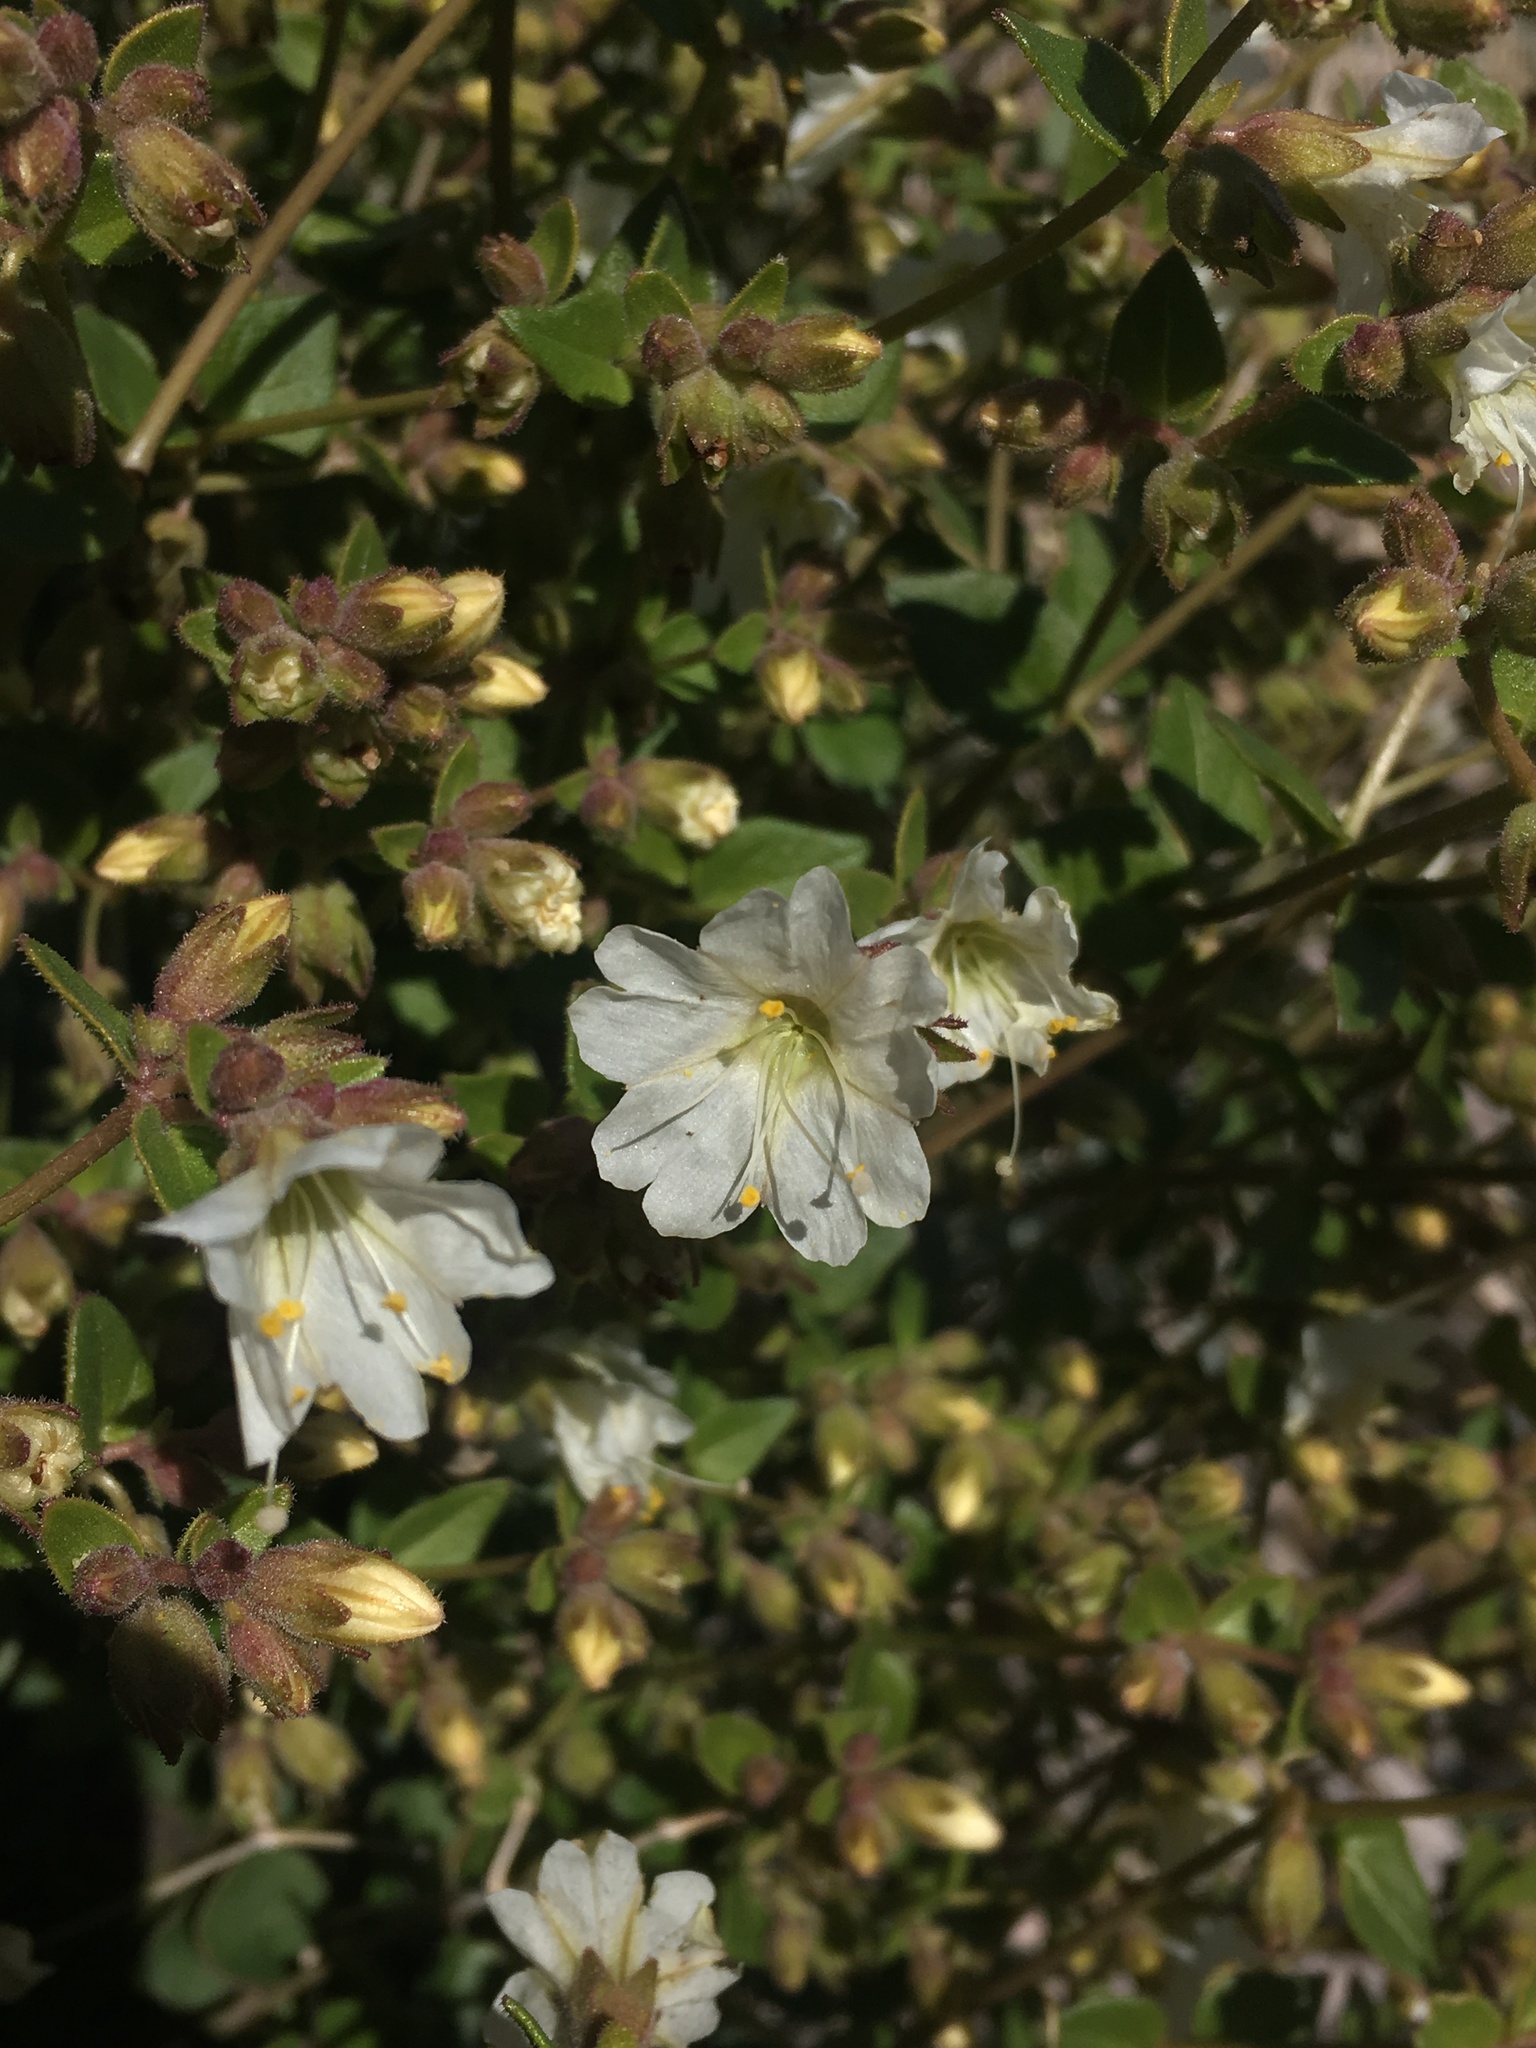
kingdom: Plantae
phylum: Tracheophyta
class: Magnoliopsida
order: Caryophyllales
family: Nyctaginaceae
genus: Mirabilis
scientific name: Mirabilis laevis
